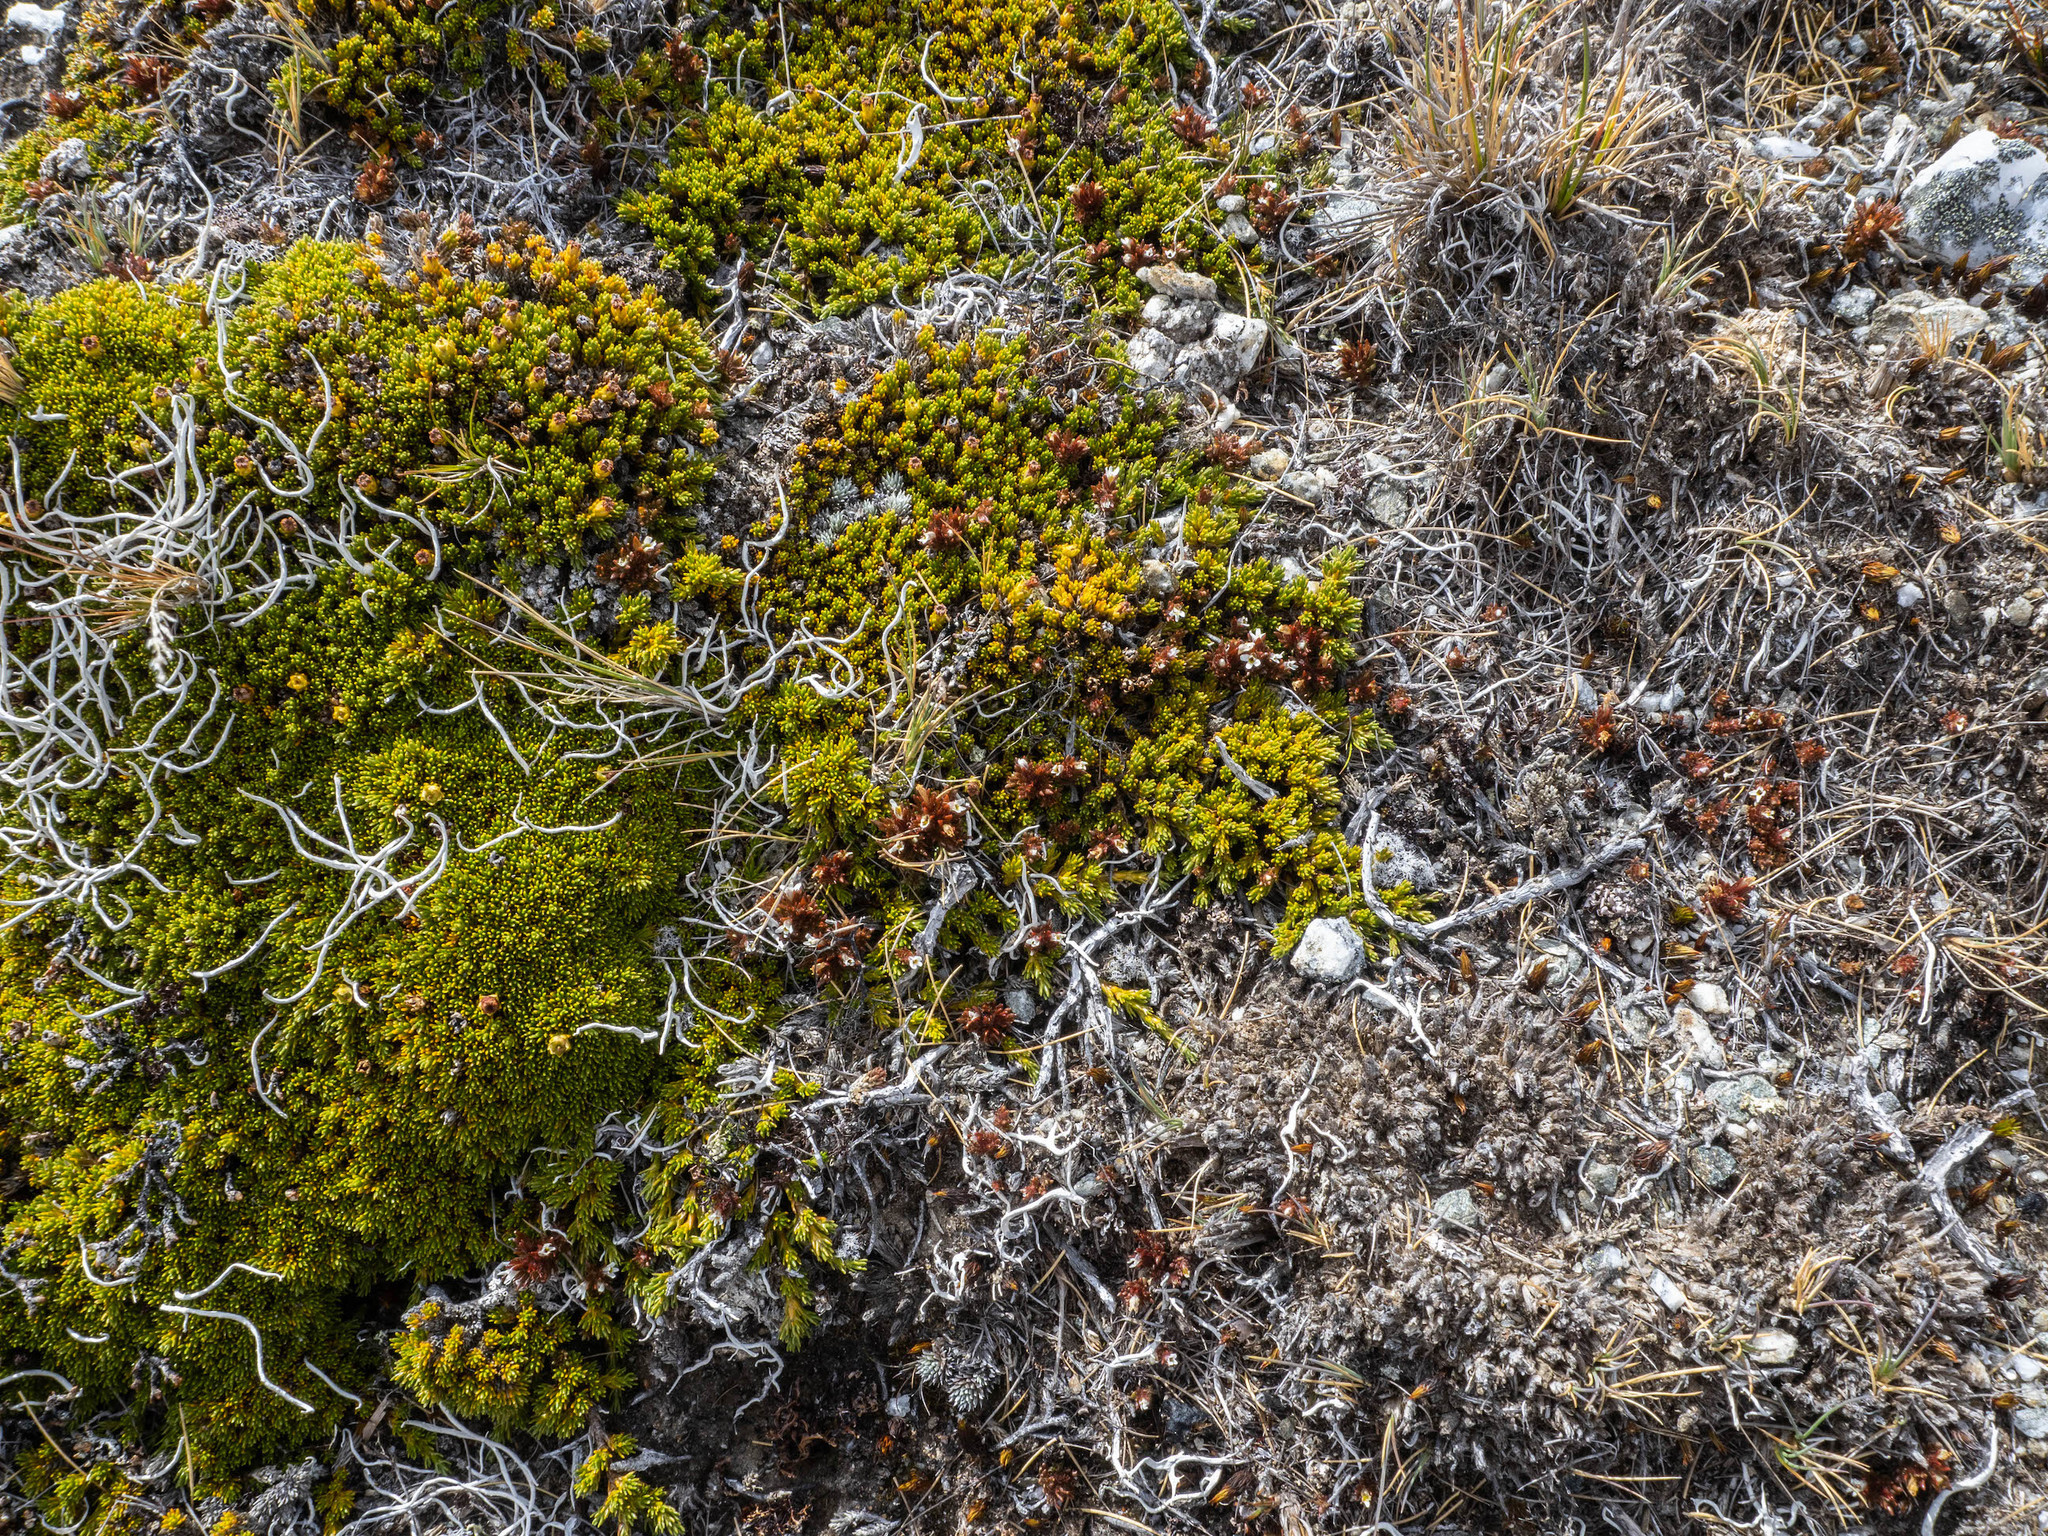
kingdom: Plantae
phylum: Tracheophyta
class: Magnoliopsida
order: Lamiales
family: Orobanchaceae
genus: Euphrasia
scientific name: Euphrasia zelandica
